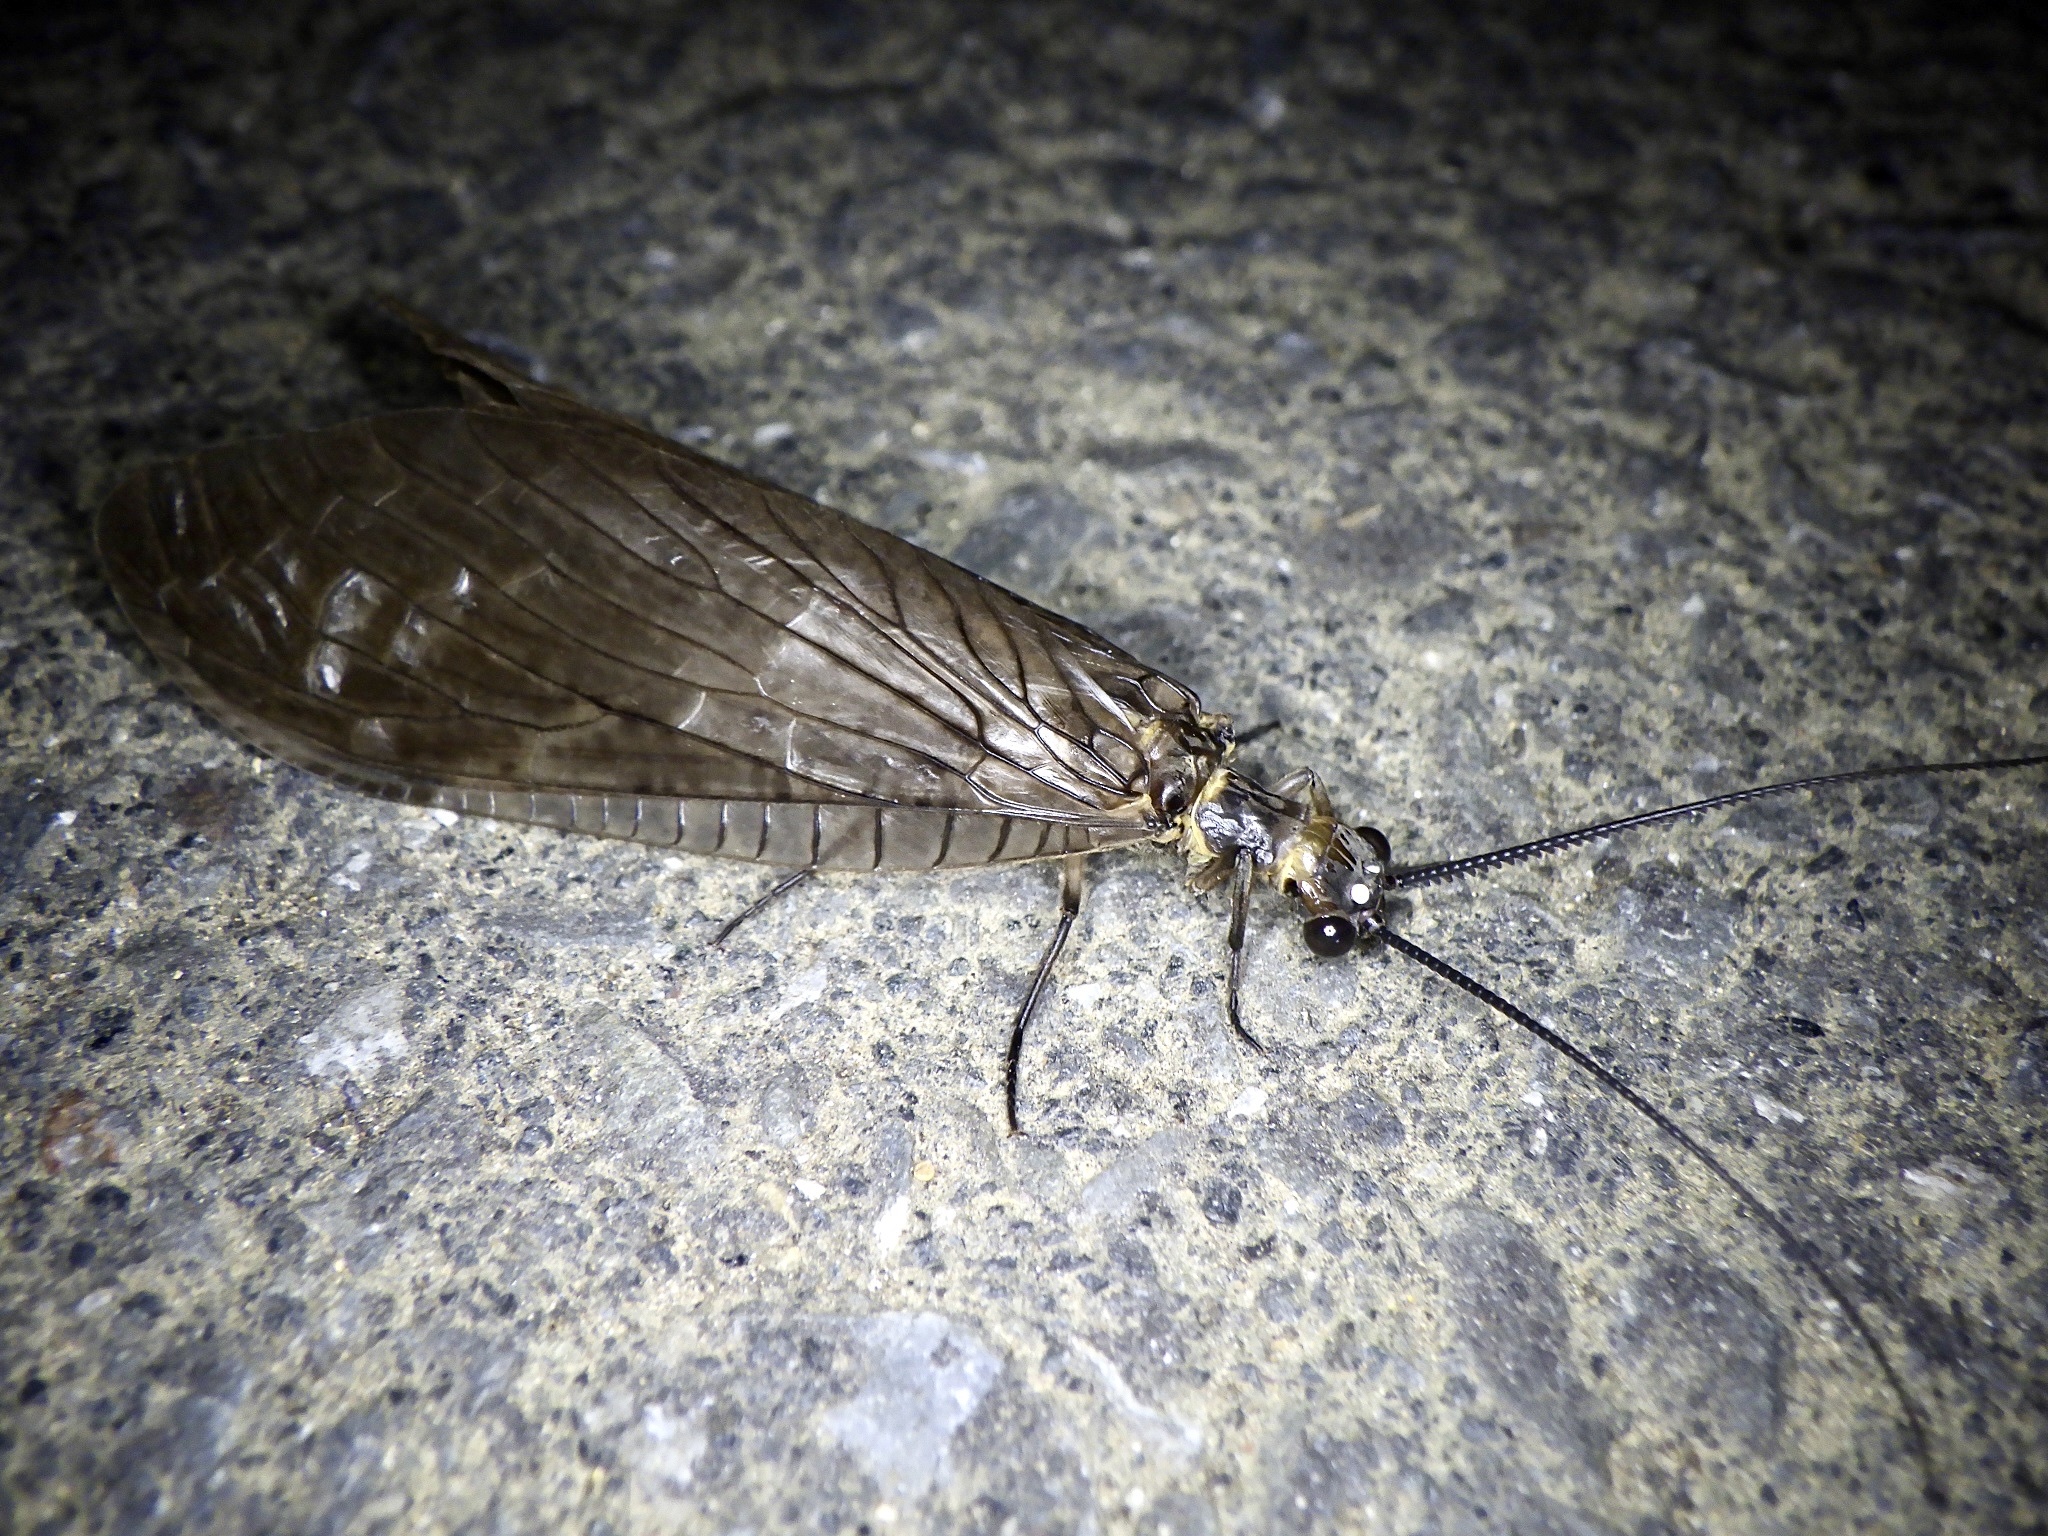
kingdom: Animalia
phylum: Arthropoda
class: Insecta
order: Megaloptera
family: Corydalidae
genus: Parachauliodes
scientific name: Parachauliodes japonicus
